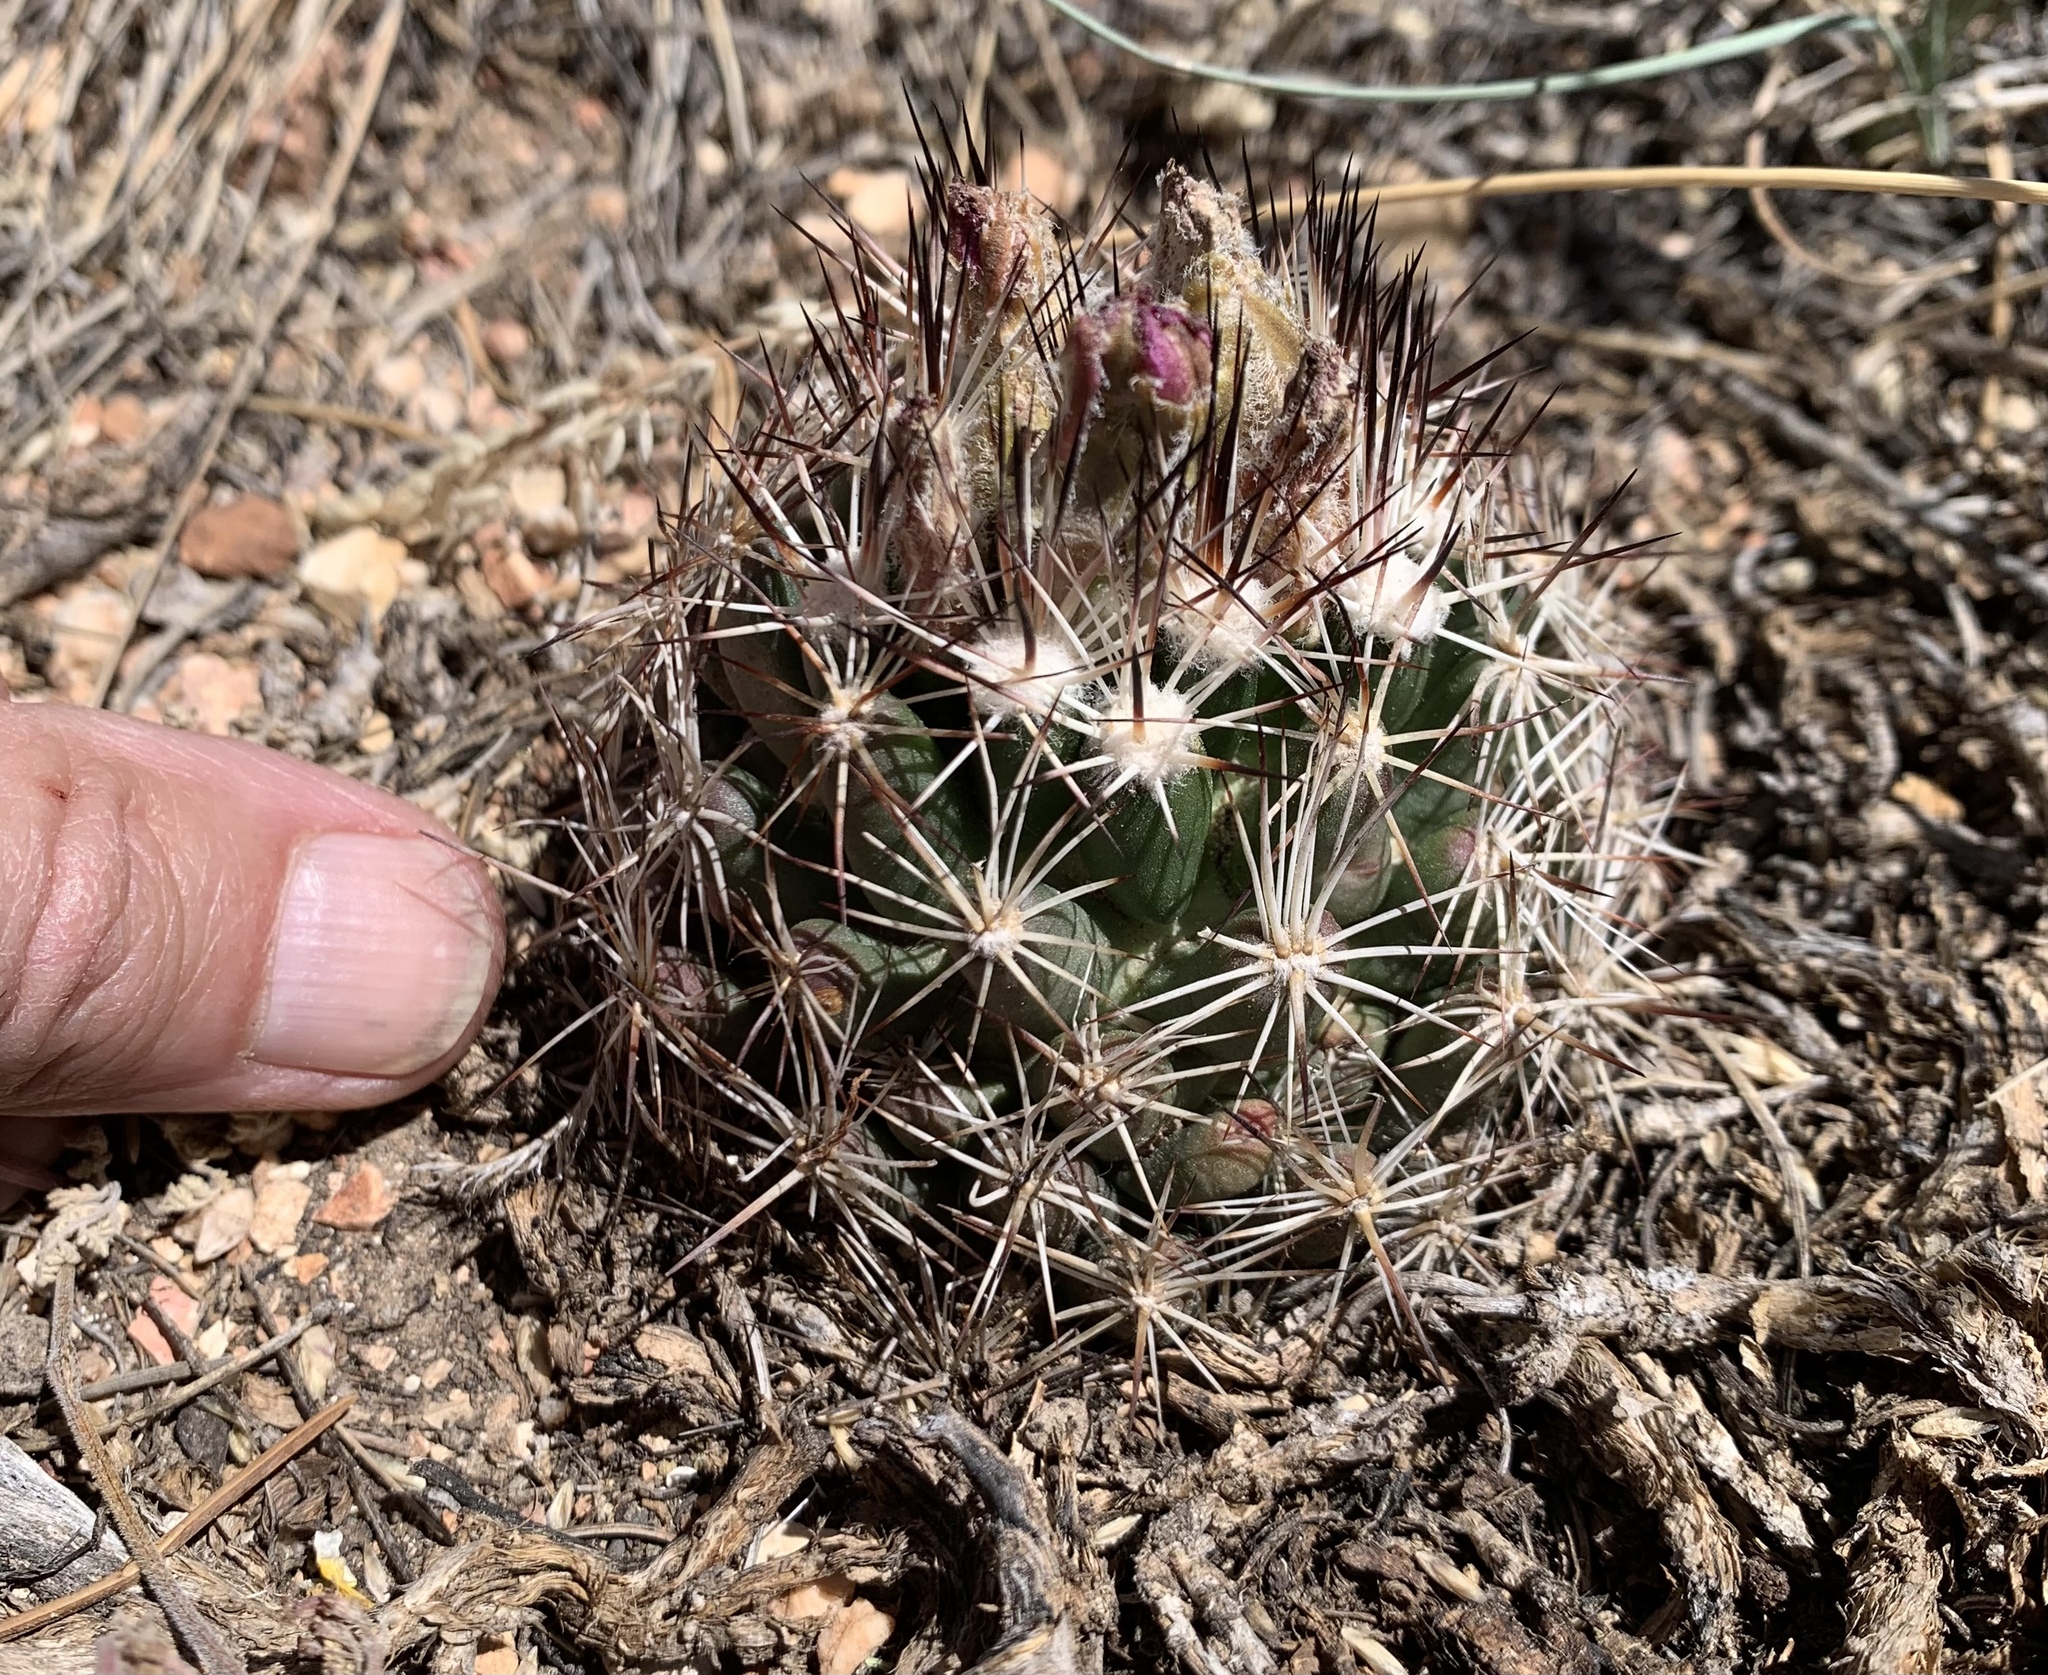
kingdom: Plantae
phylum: Tracheophyta
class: Magnoliopsida
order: Caryophyllales
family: Cactaceae
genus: Pelecyphora
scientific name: Pelecyphora vivipara
